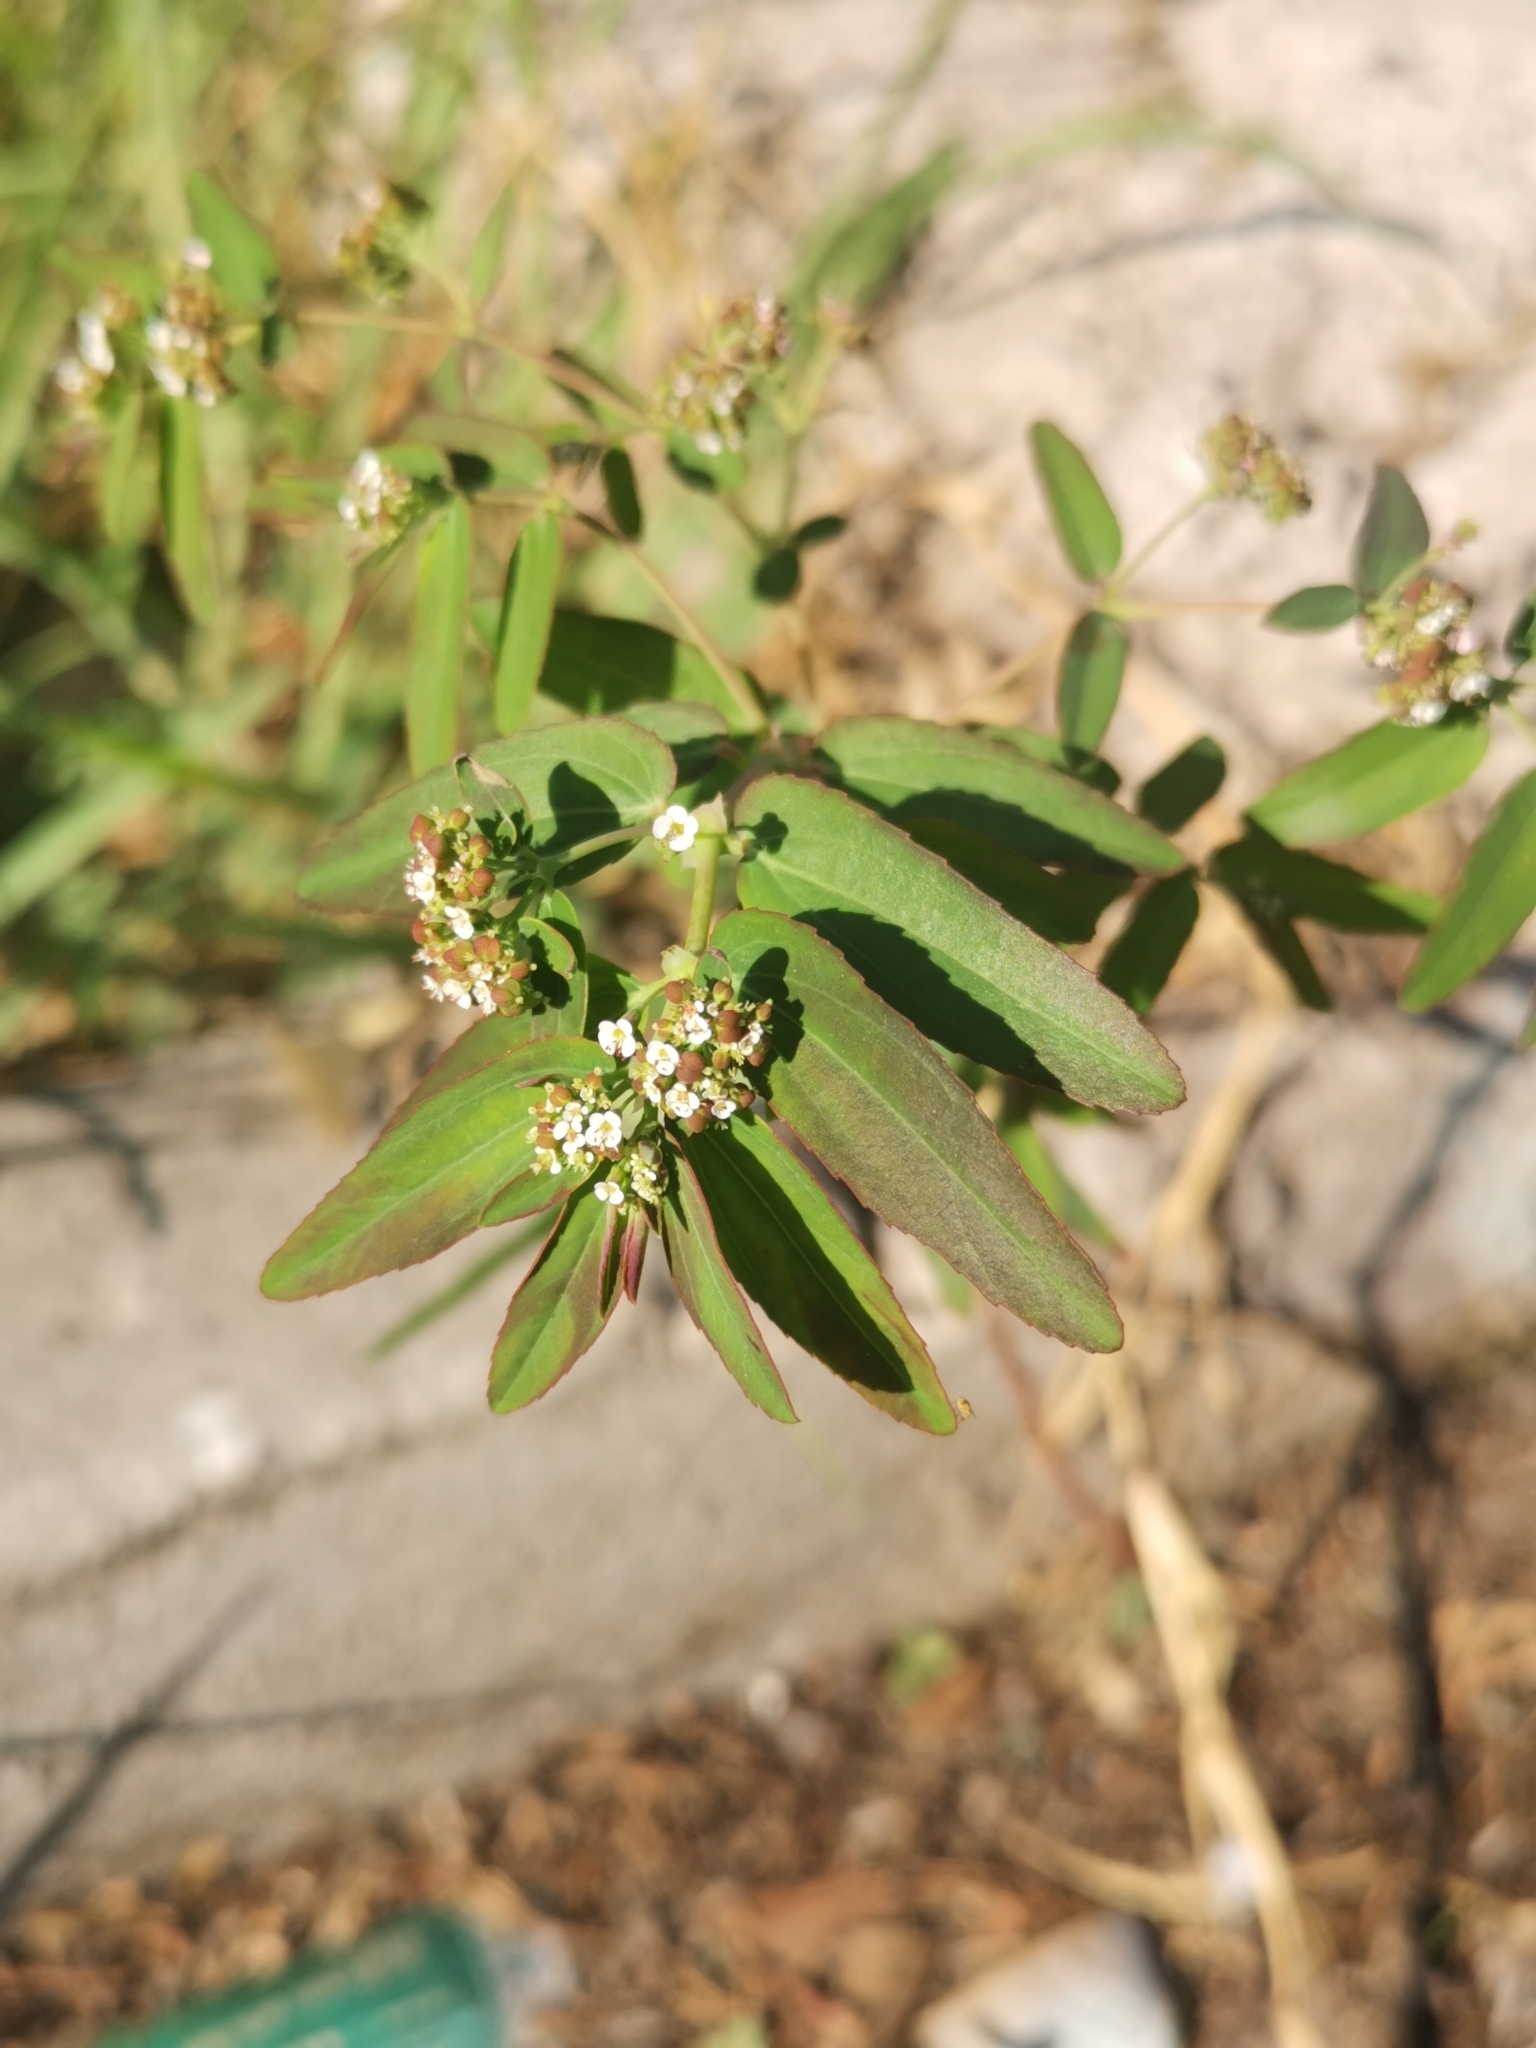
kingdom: Plantae
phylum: Tracheophyta
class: Magnoliopsida
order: Malpighiales
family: Euphorbiaceae
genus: Euphorbia
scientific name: Euphorbia hypericifolia
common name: Graceful sandmat
